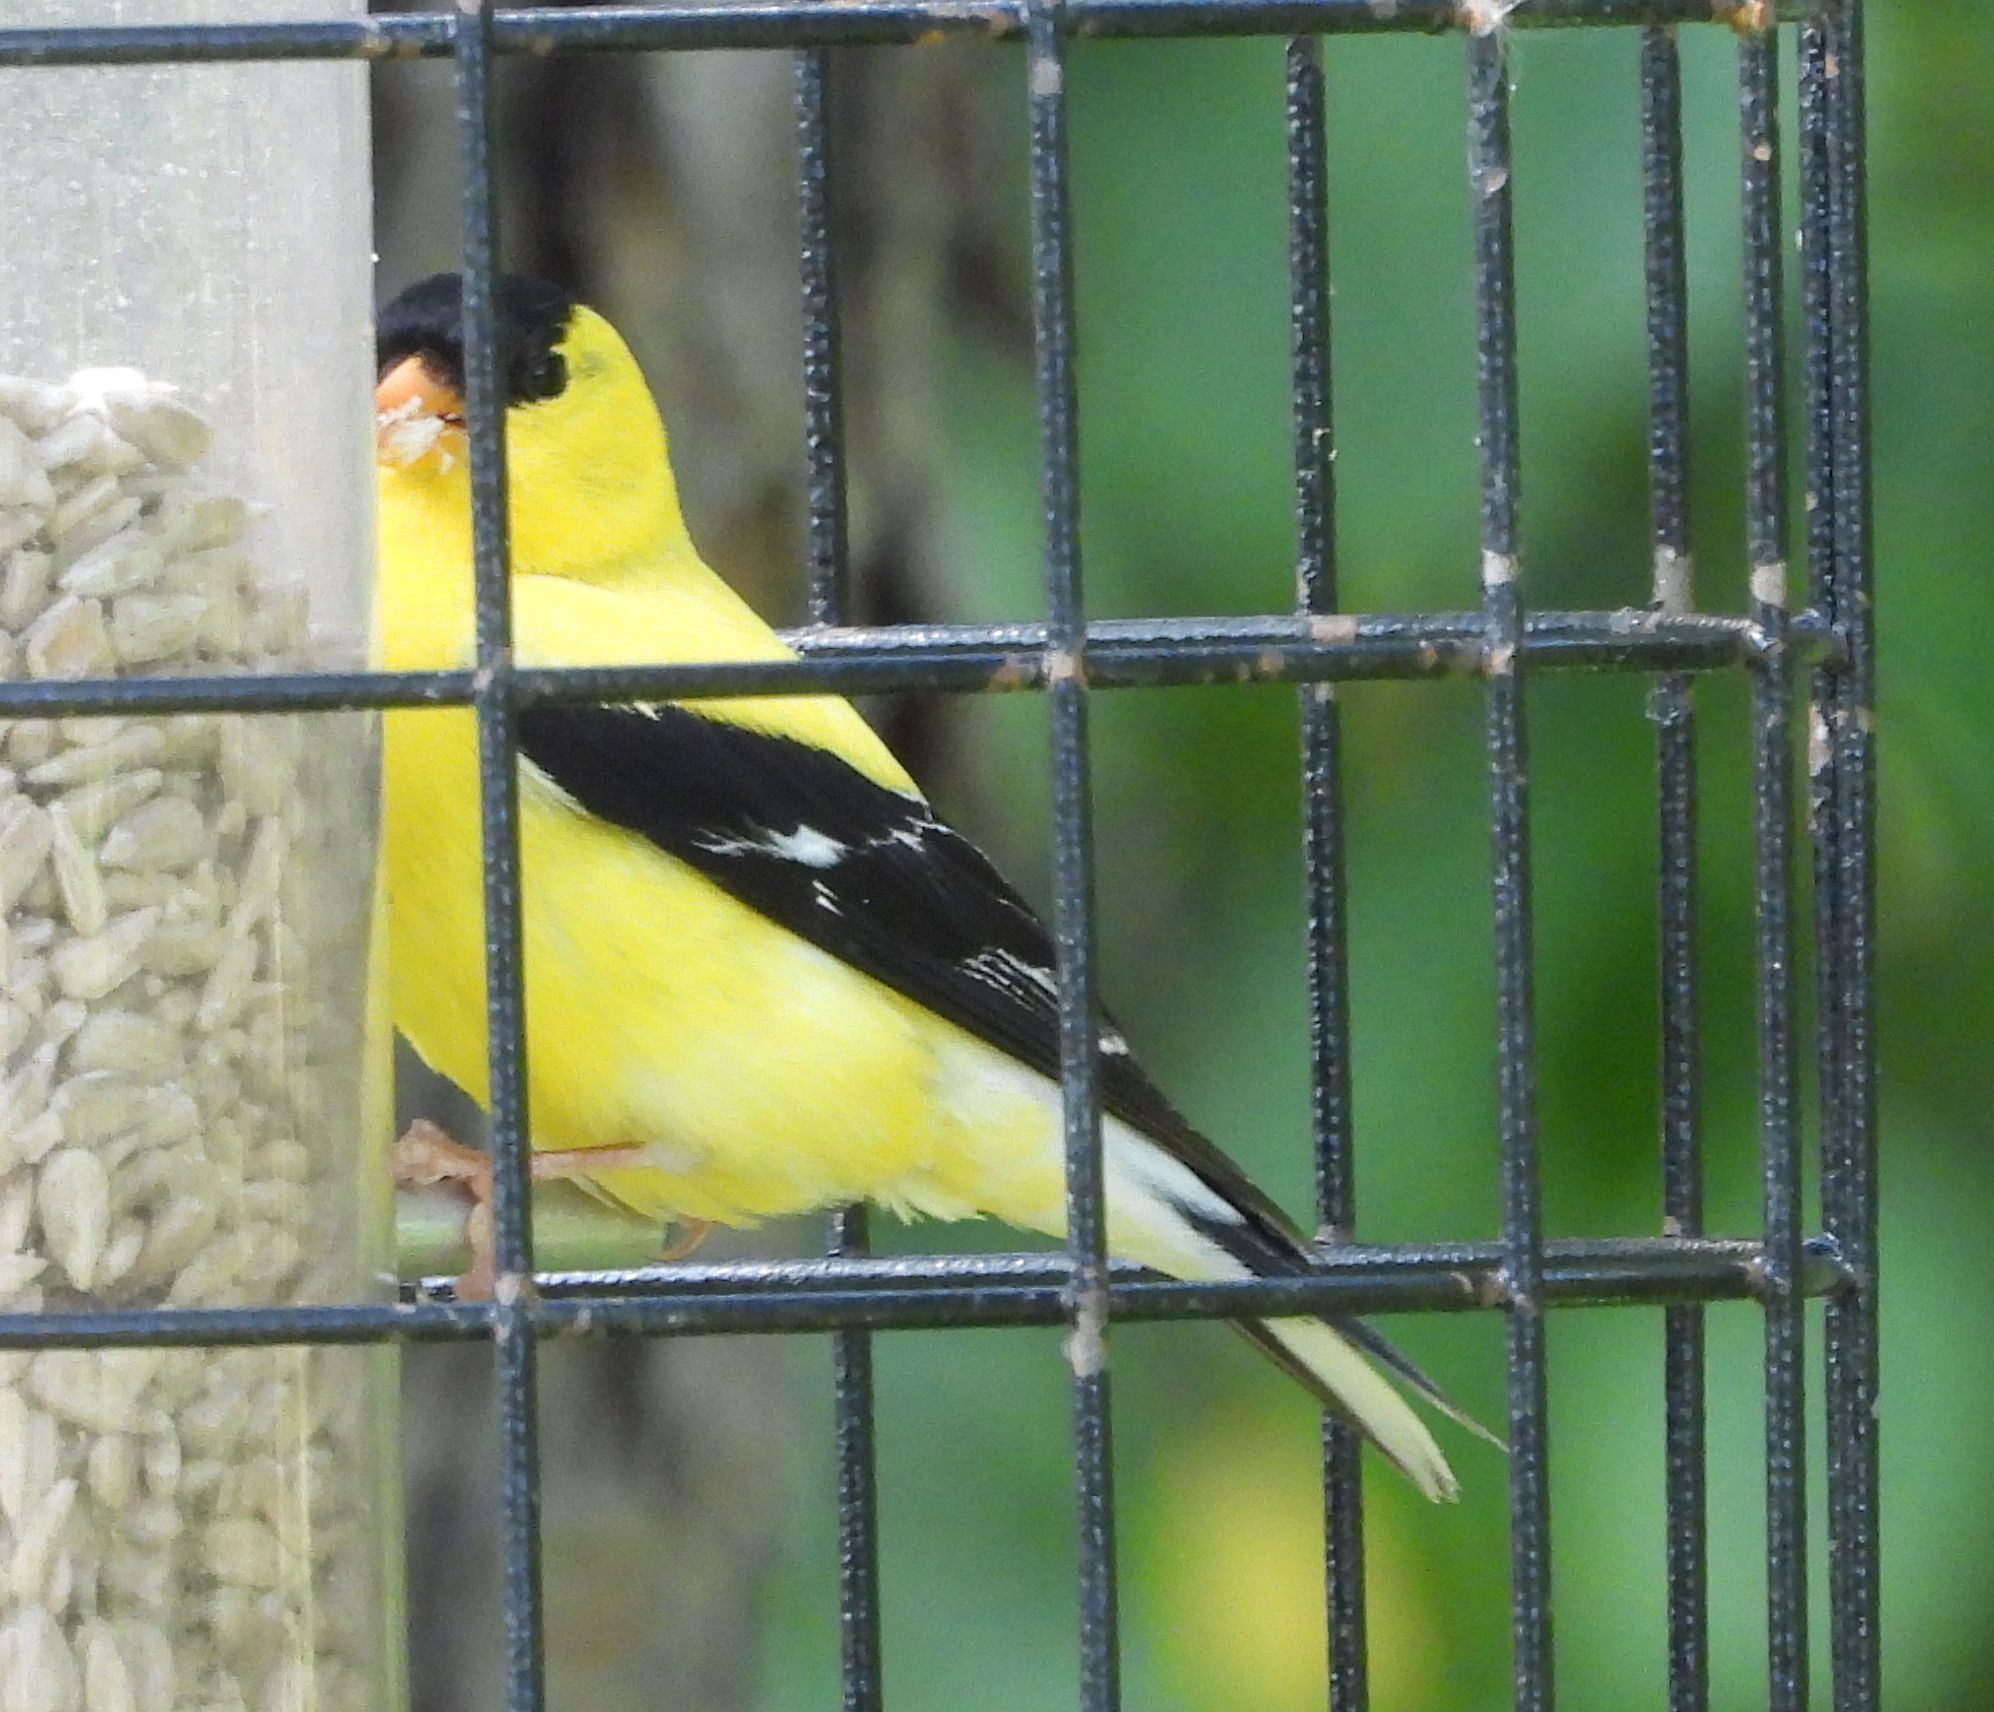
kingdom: Animalia
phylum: Chordata
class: Aves
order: Passeriformes
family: Fringillidae
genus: Spinus
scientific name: Spinus tristis
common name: American goldfinch
